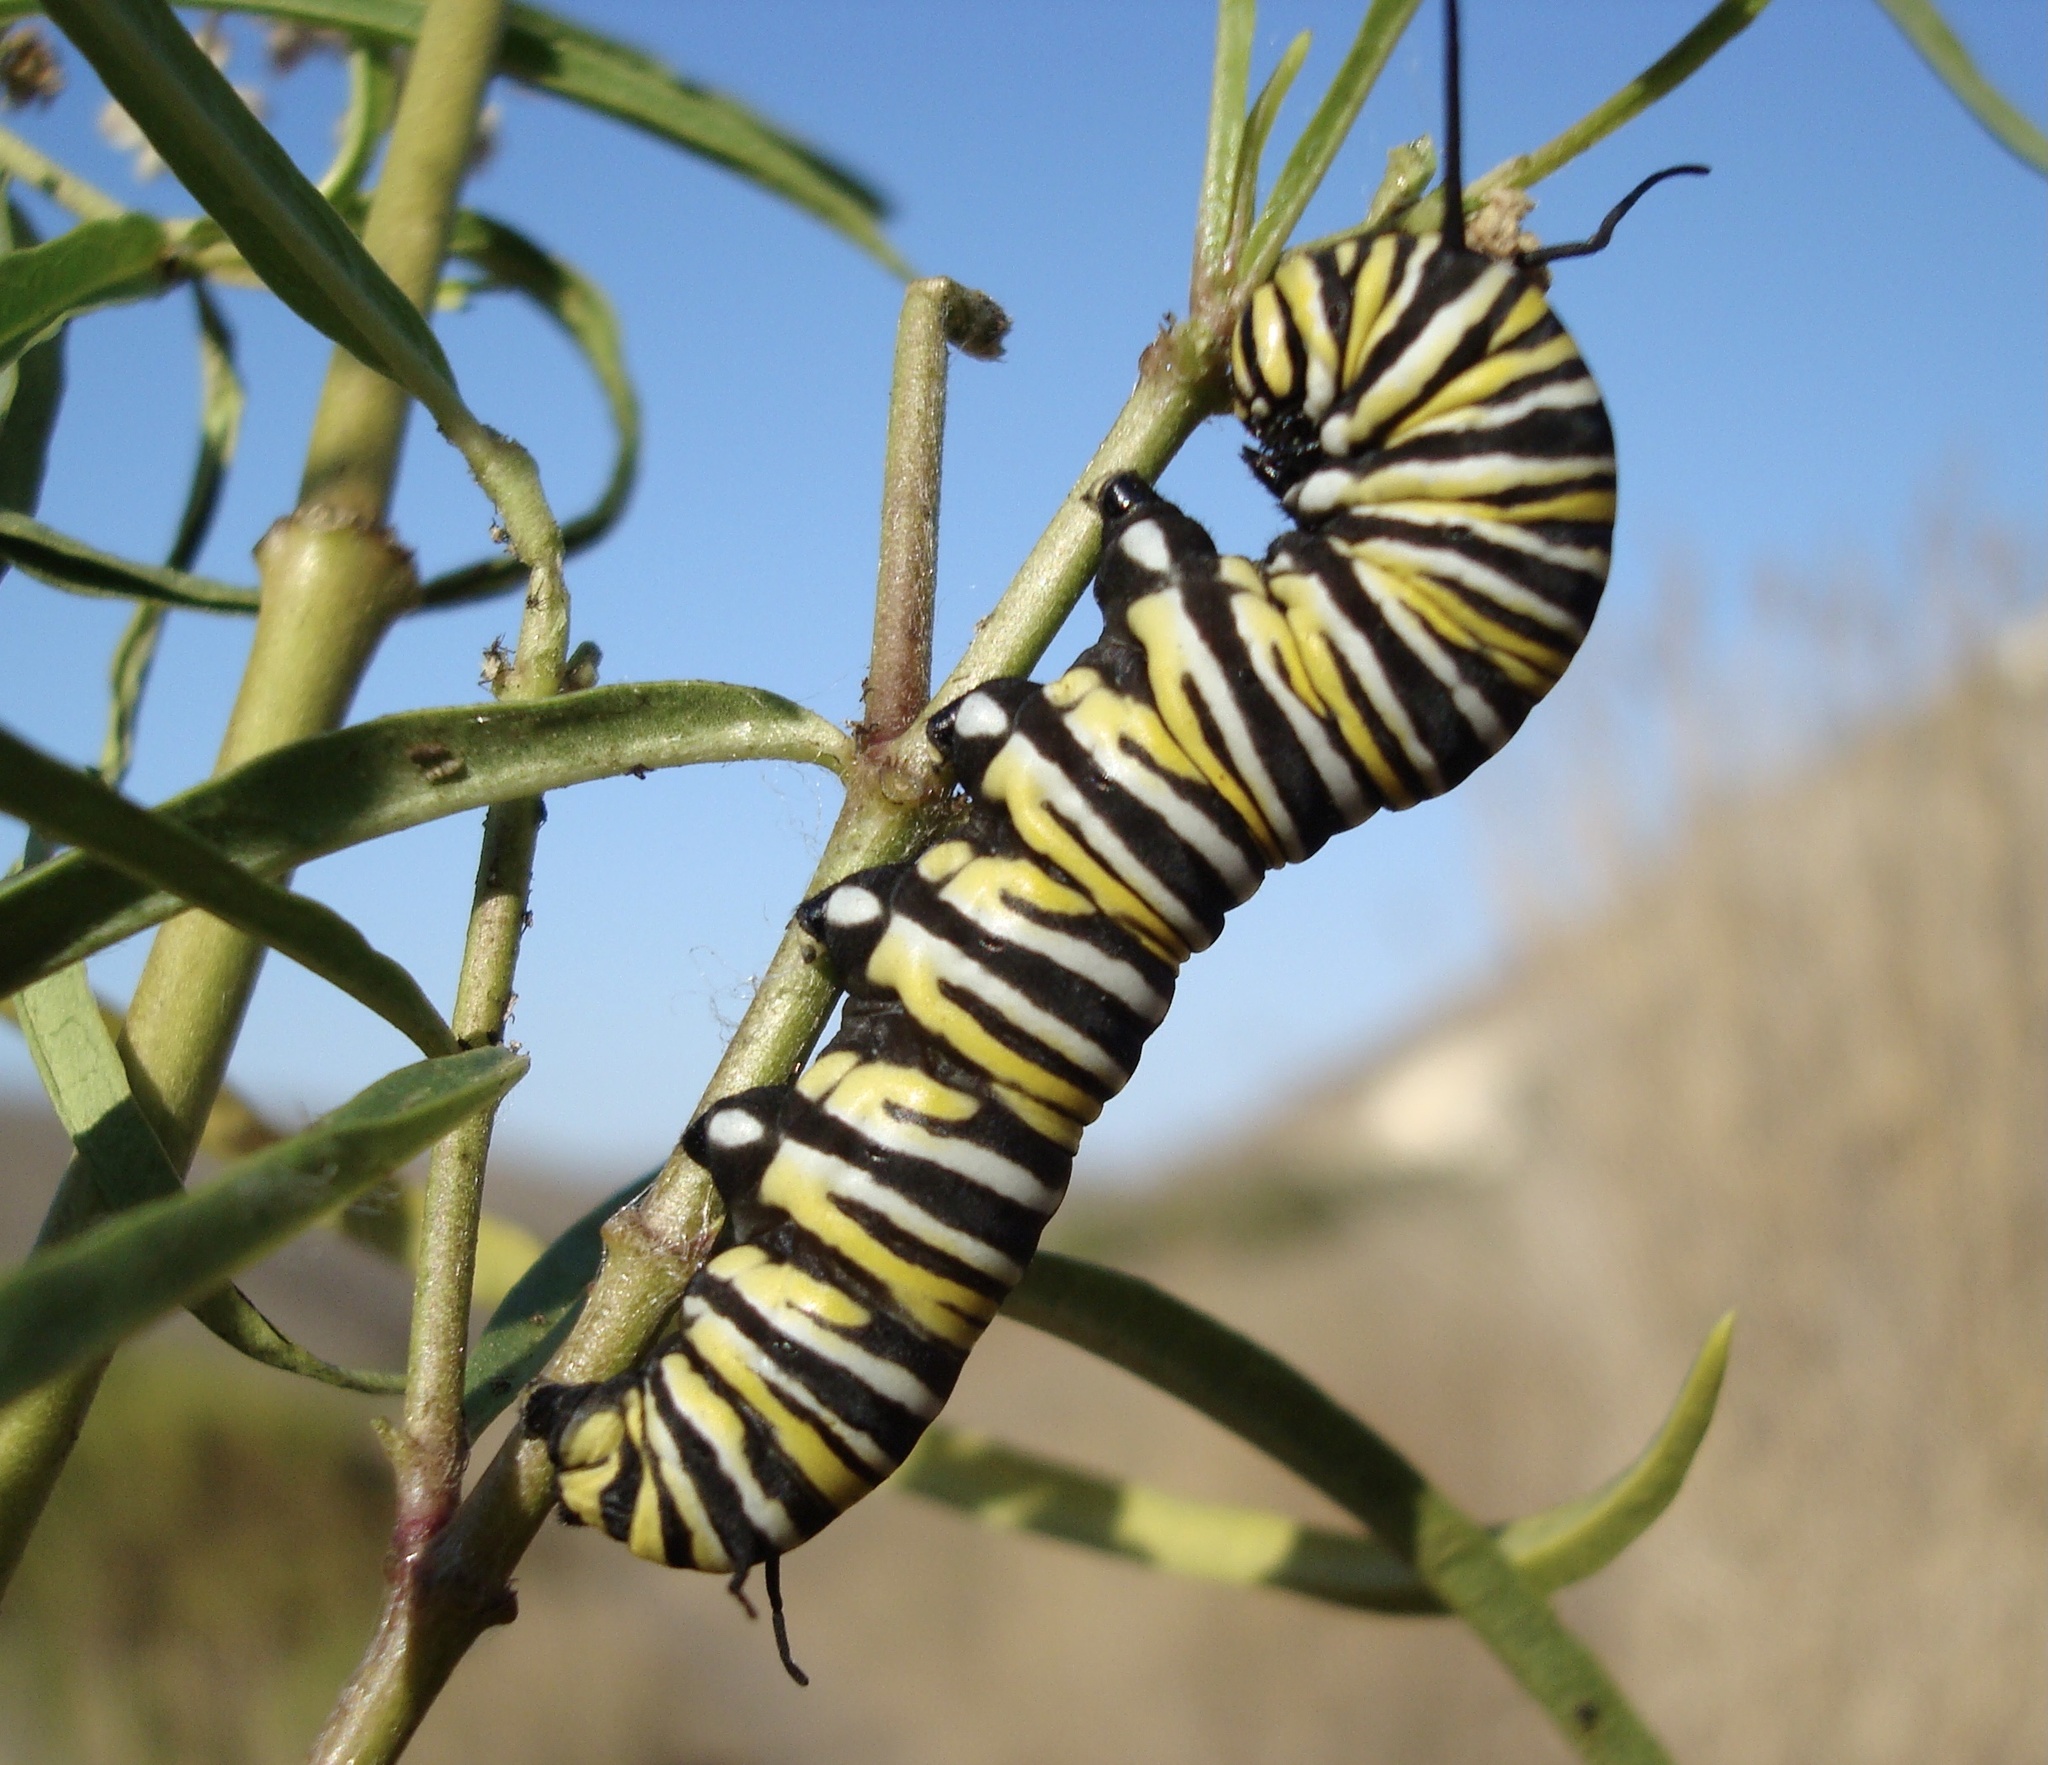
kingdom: Animalia
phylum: Arthropoda
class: Insecta
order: Lepidoptera
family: Nymphalidae
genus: Danaus
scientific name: Danaus plexippus
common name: Monarch
